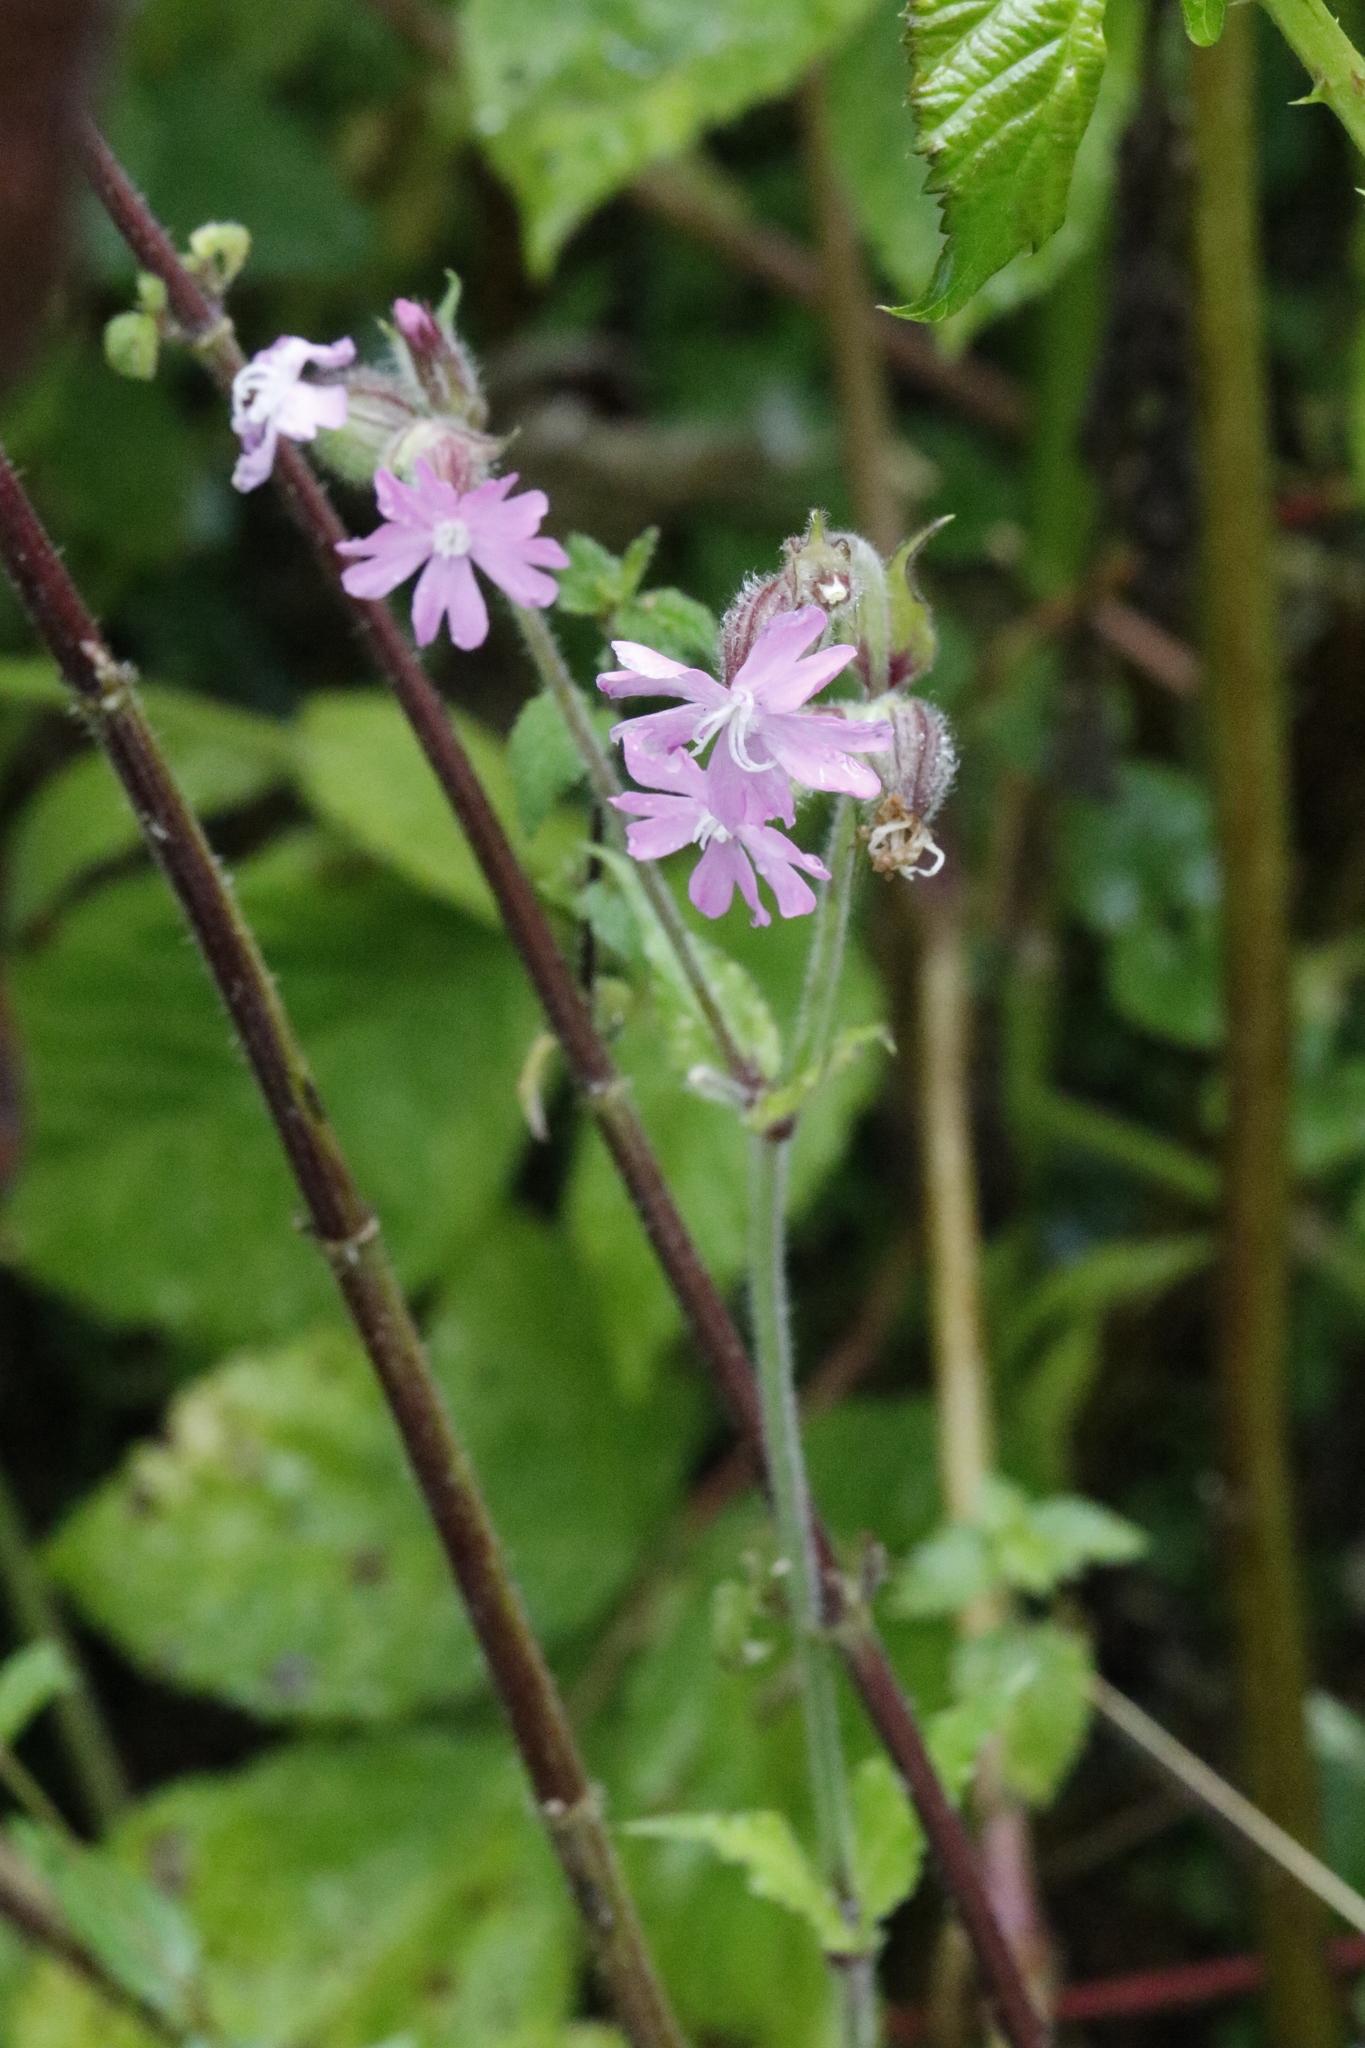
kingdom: Plantae
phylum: Tracheophyta
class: Magnoliopsida
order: Caryophyllales
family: Caryophyllaceae
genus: Silene
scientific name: Silene hampeana
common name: Catchfly
